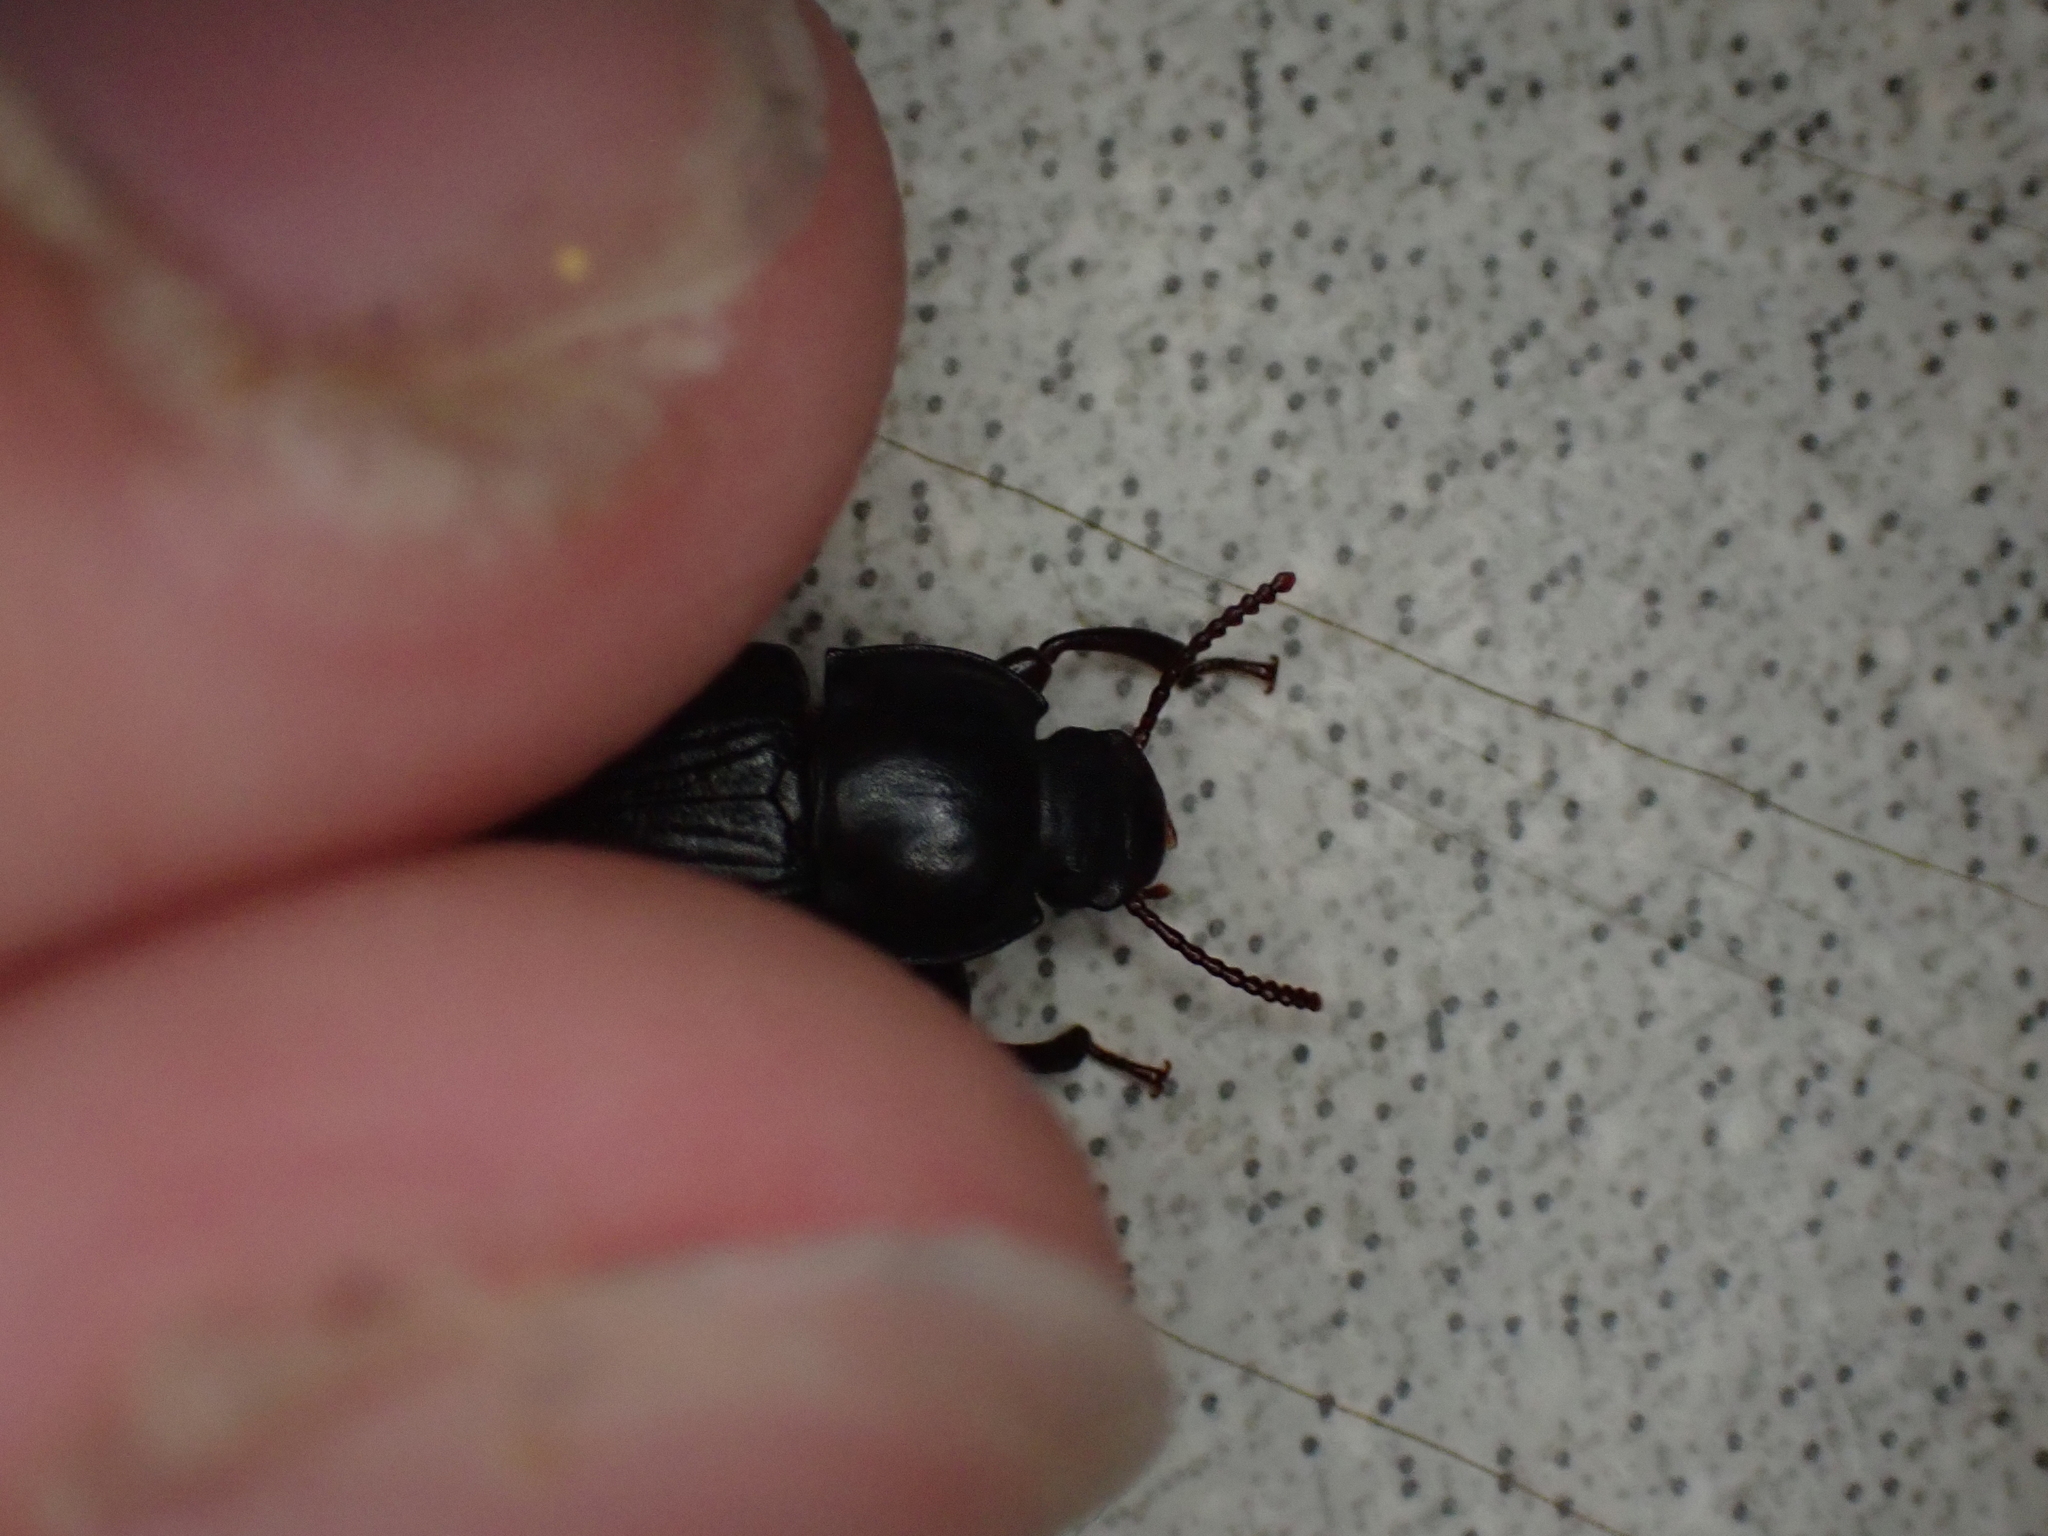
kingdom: Animalia
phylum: Arthropoda
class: Insecta
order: Coleoptera
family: Tenebrionidae
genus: Tenebrio
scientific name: Tenebrio molitor
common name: Hardback beetle
